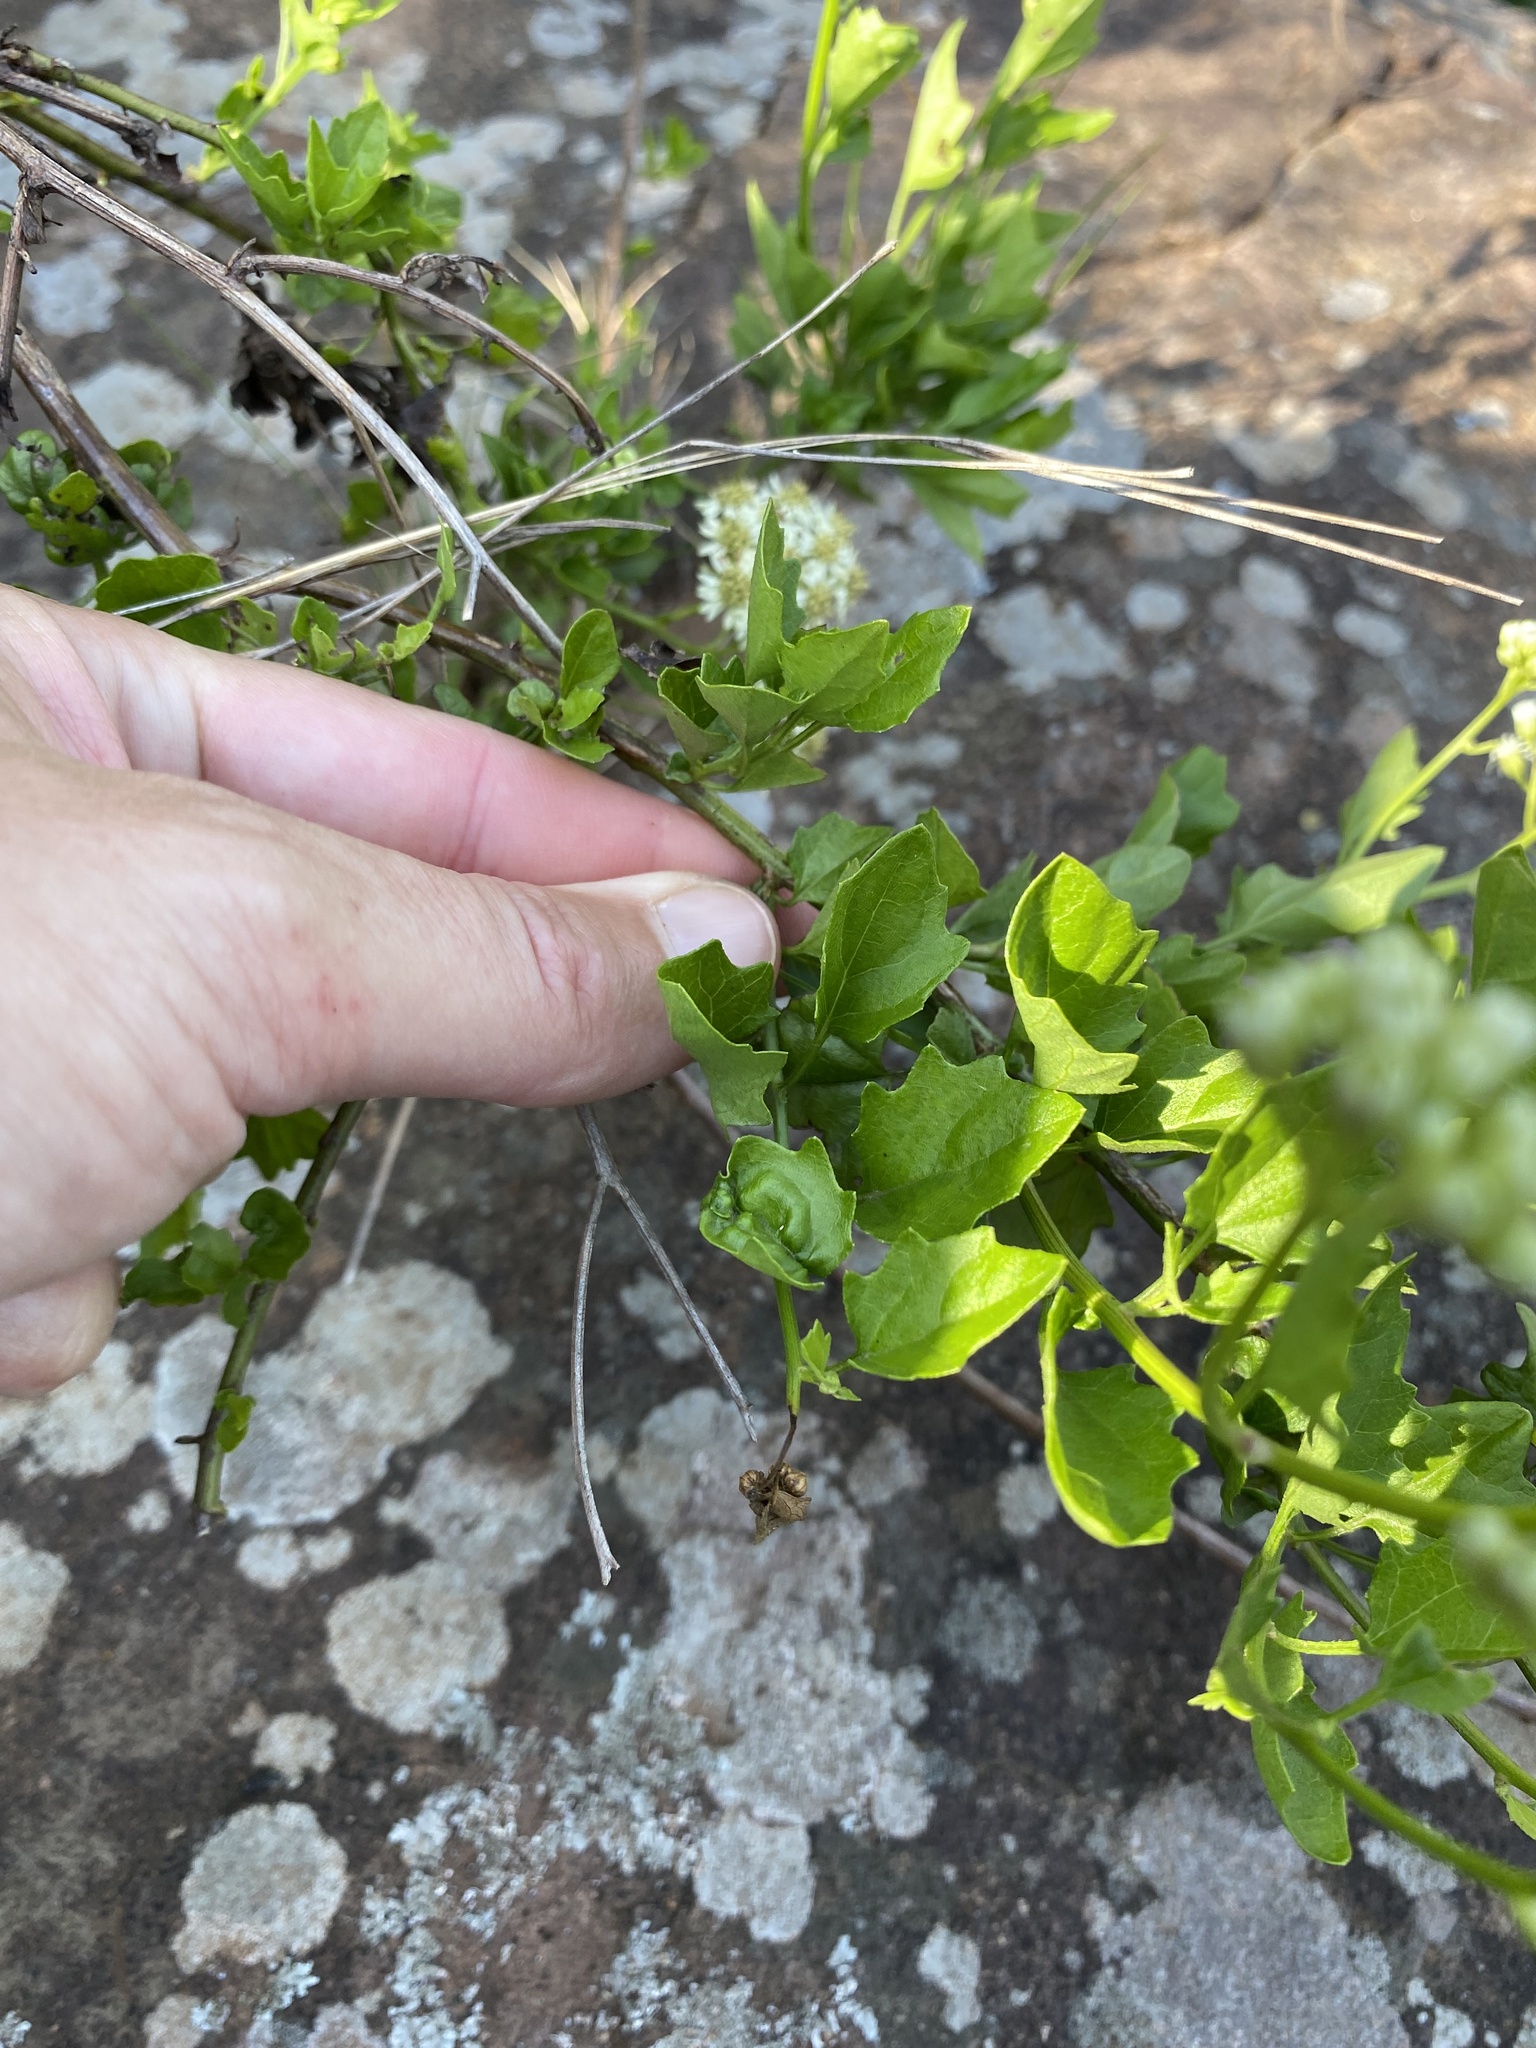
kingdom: Plantae
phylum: Tracheophyta
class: Magnoliopsida
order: Asterales
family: Asteraceae
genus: Microglossa
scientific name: Microglossa mespilifolia
